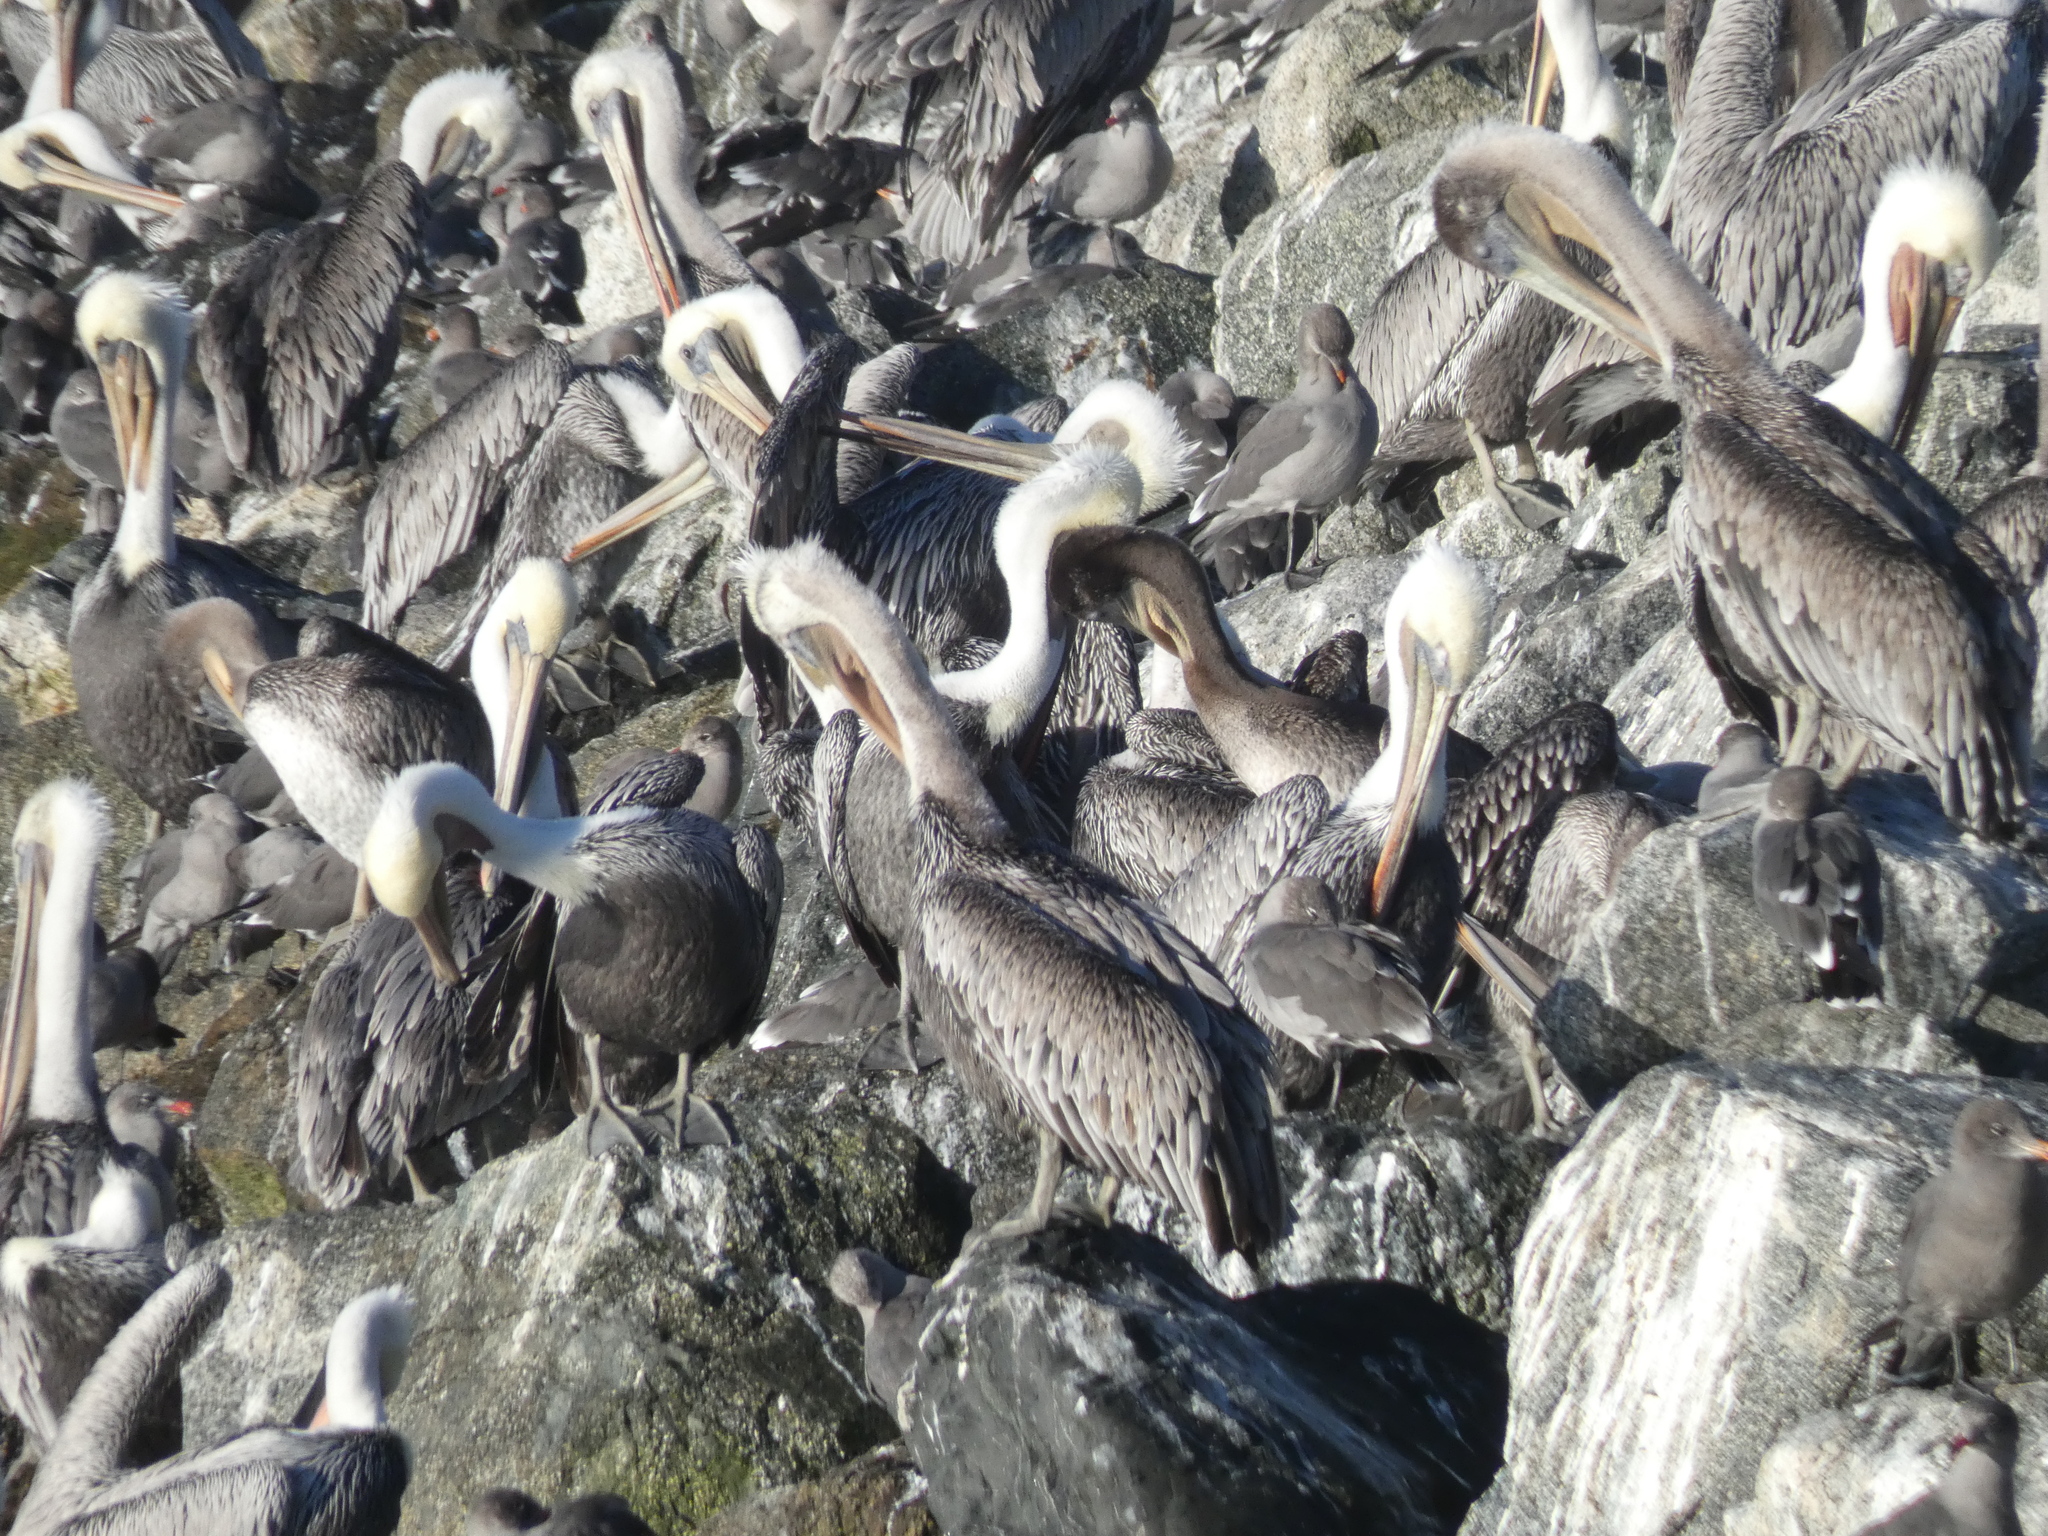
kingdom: Animalia
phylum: Chordata
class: Aves
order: Pelecaniformes
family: Pelecanidae
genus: Pelecanus
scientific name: Pelecanus occidentalis
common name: Brown pelican
